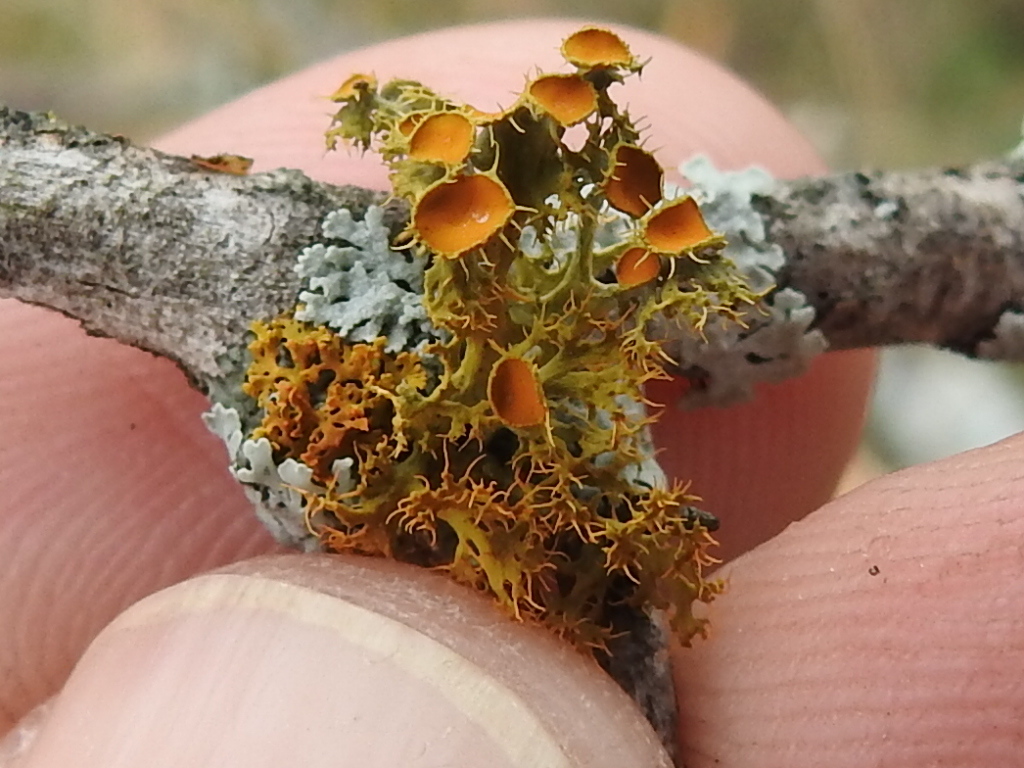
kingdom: Fungi
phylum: Ascomycota
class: Lecanoromycetes
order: Teloschistales
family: Teloschistaceae
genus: Niorma
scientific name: Niorma chrysophthalma
